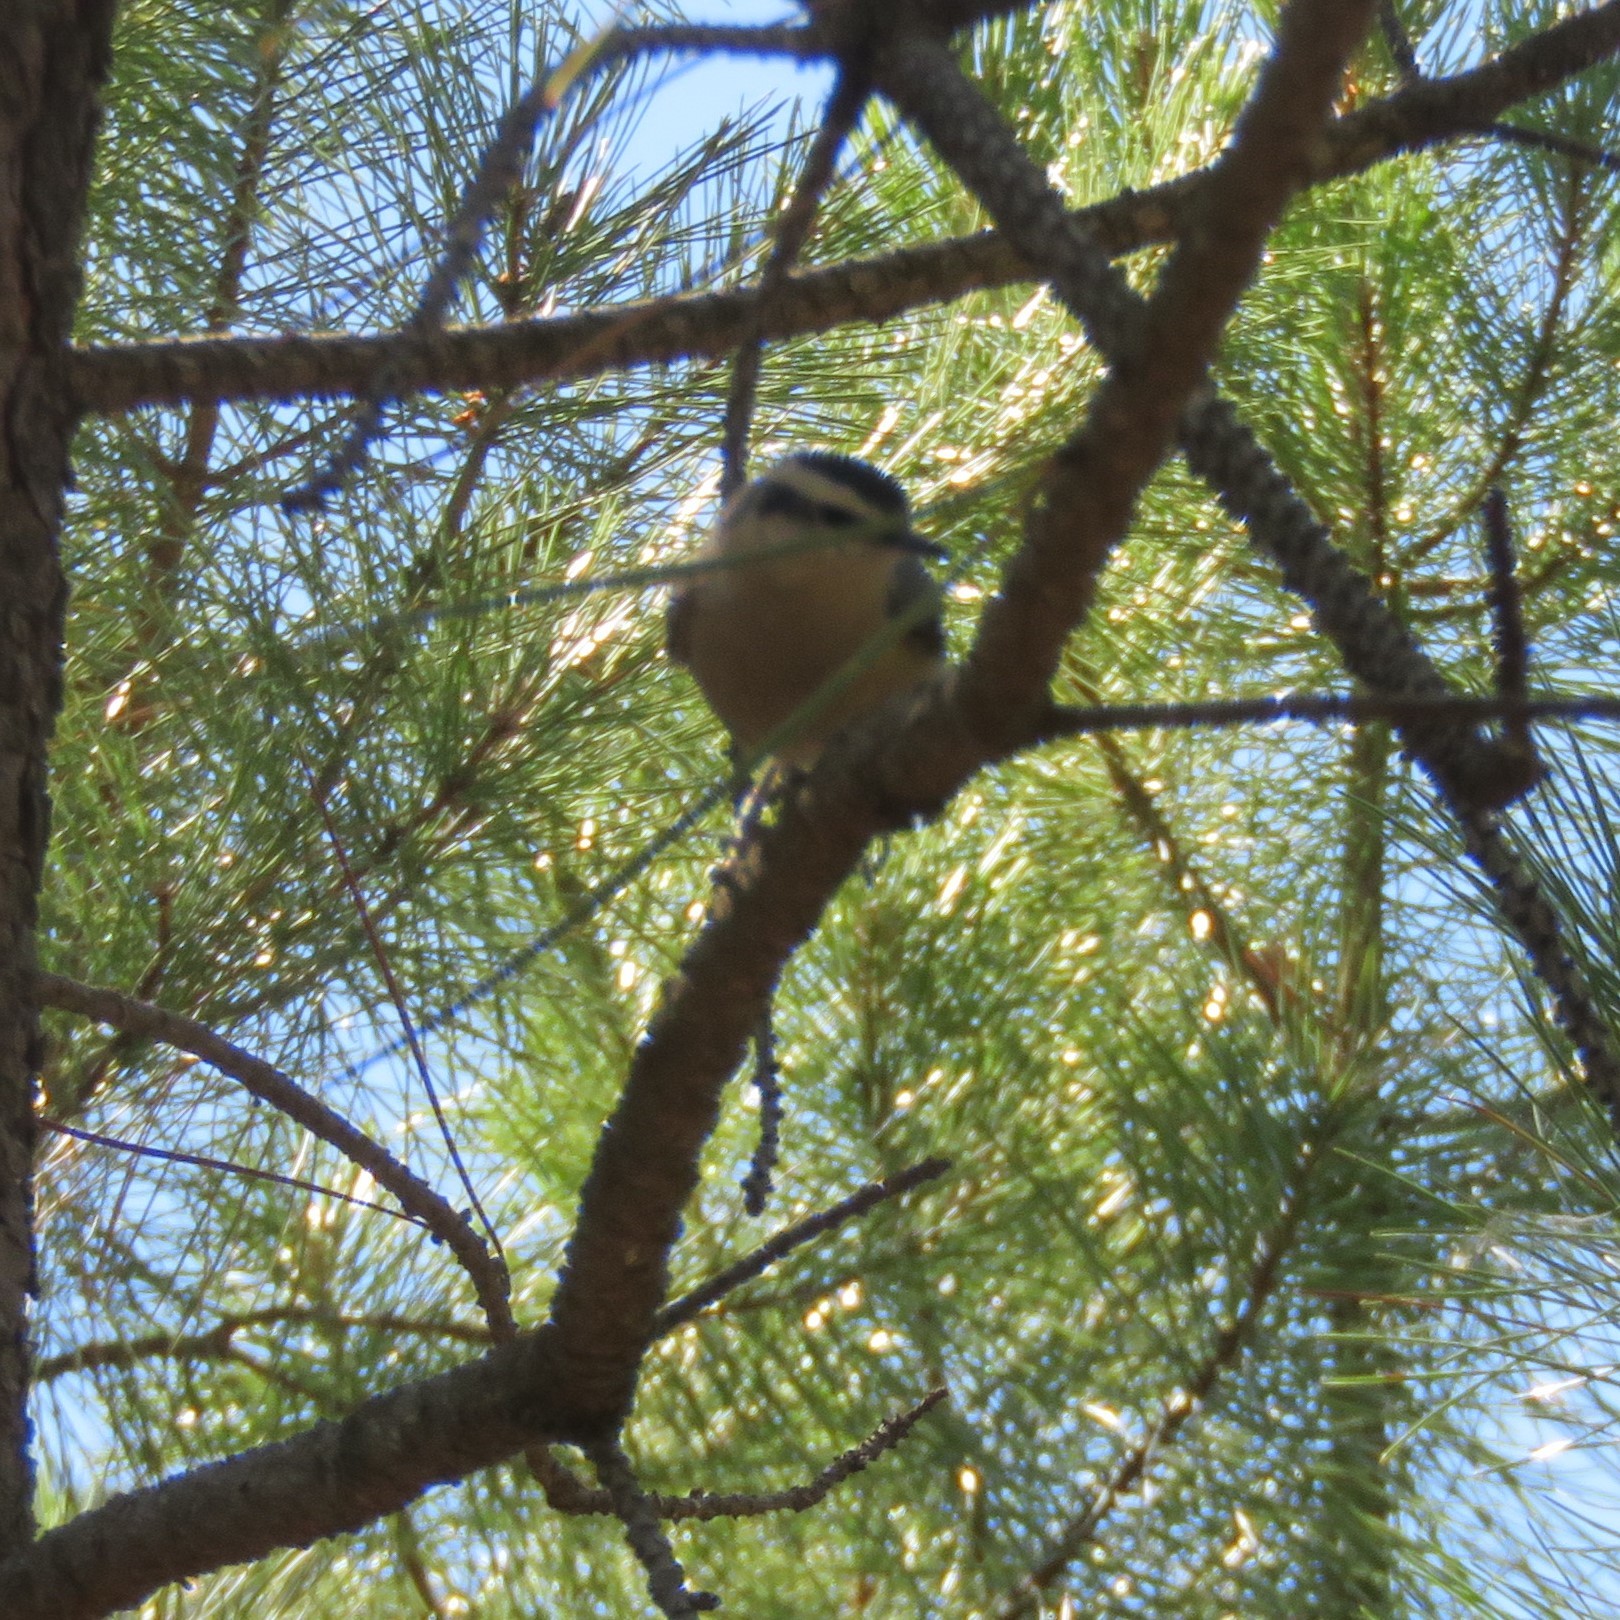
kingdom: Animalia
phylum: Chordata
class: Aves
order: Passeriformes
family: Sittidae
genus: Sitta
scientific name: Sitta whiteheadi
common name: Corsican nuthatch
